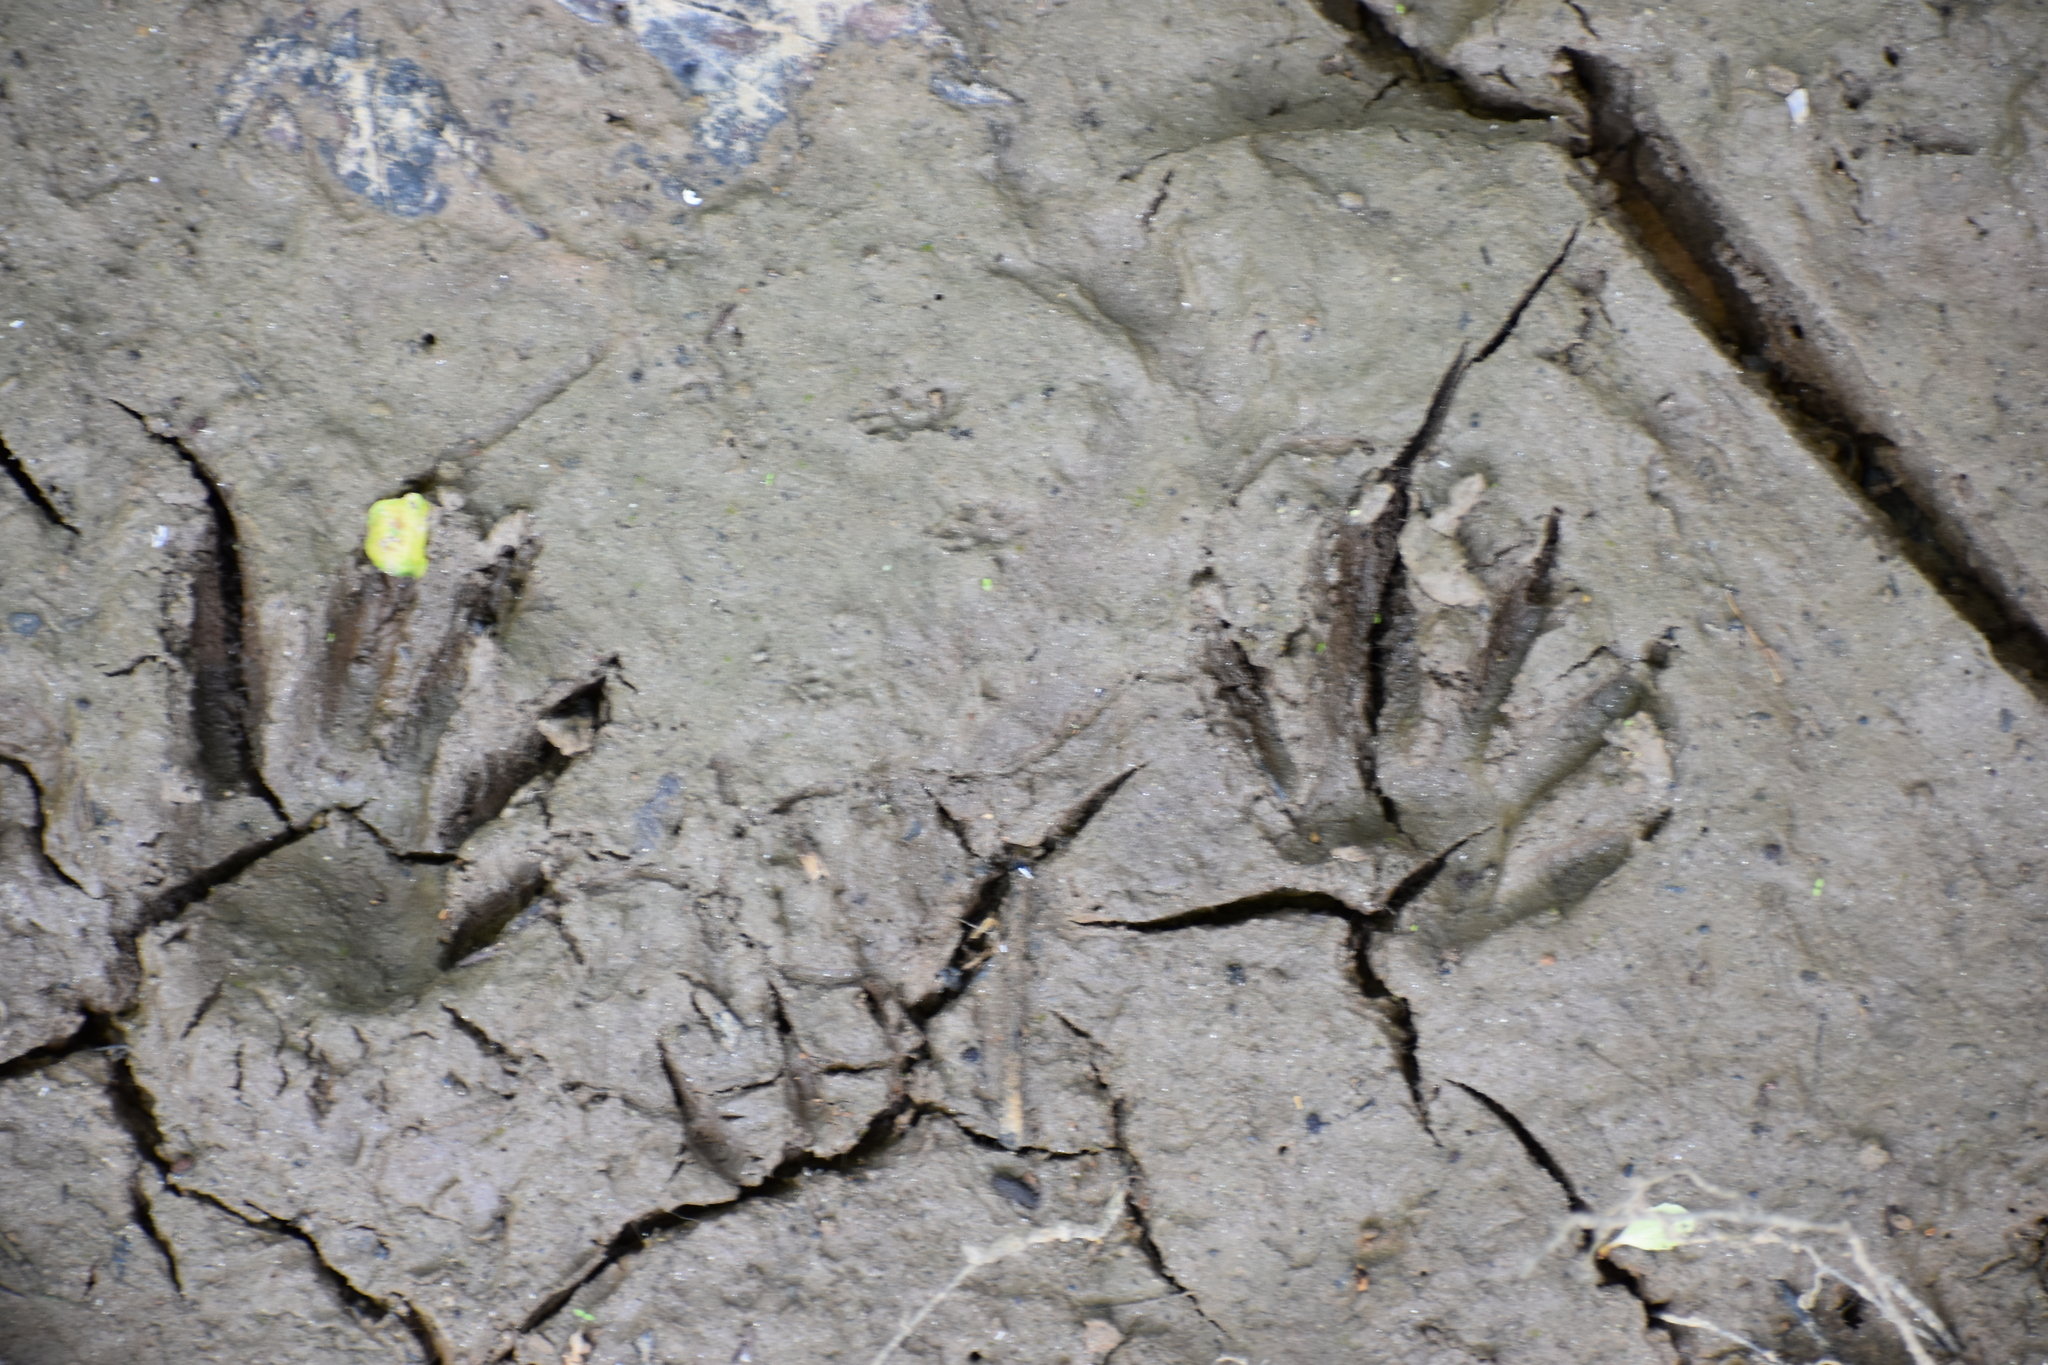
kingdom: Animalia
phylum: Chordata
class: Mammalia
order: Carnivora
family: Procyonidae
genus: Procyon
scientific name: Procyon lotor
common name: Raccoon
